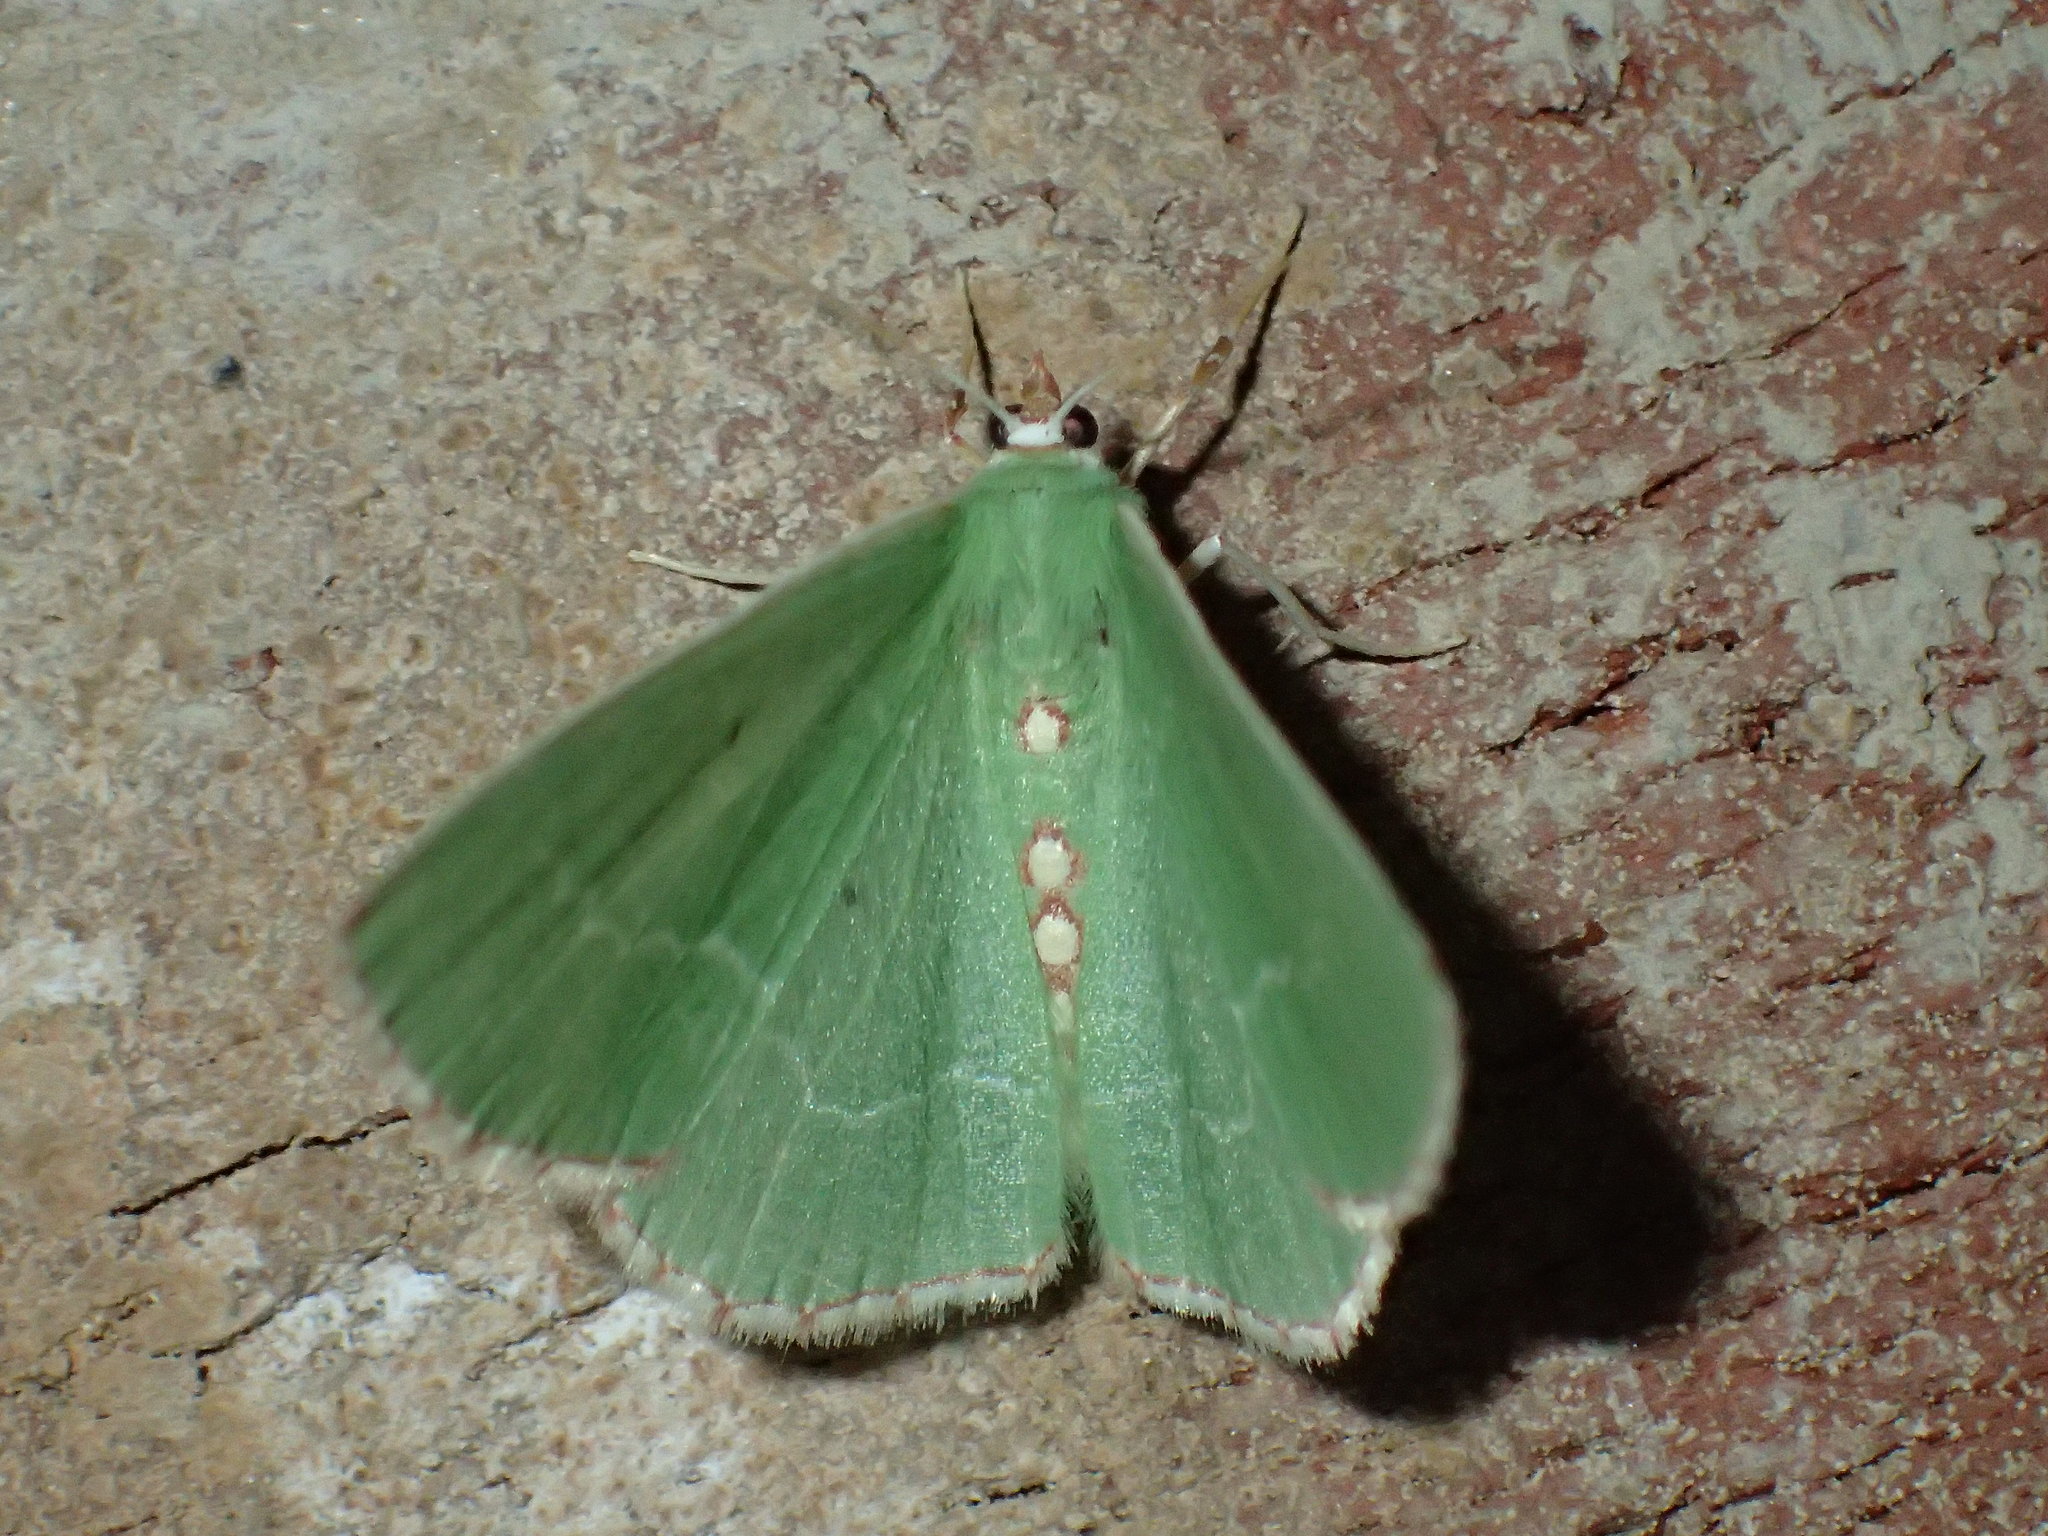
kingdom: Animalia
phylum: Arthropoda
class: Insecta
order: Lepidoptera
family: Geometridae
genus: Nemoria
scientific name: Nemoria lixaria
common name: Red-bordered emerald
